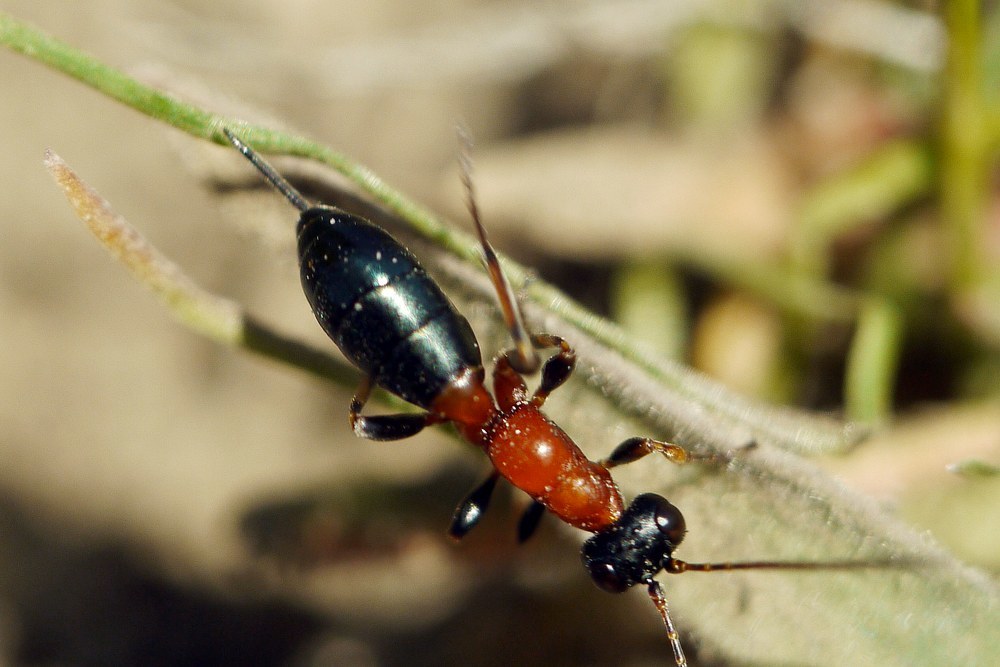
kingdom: Animalia
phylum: Arthropoda
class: Insecta
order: Hymenoptera
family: Ichneumonidae
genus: Thaumatogelis
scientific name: Thaumatogelis gallicus
